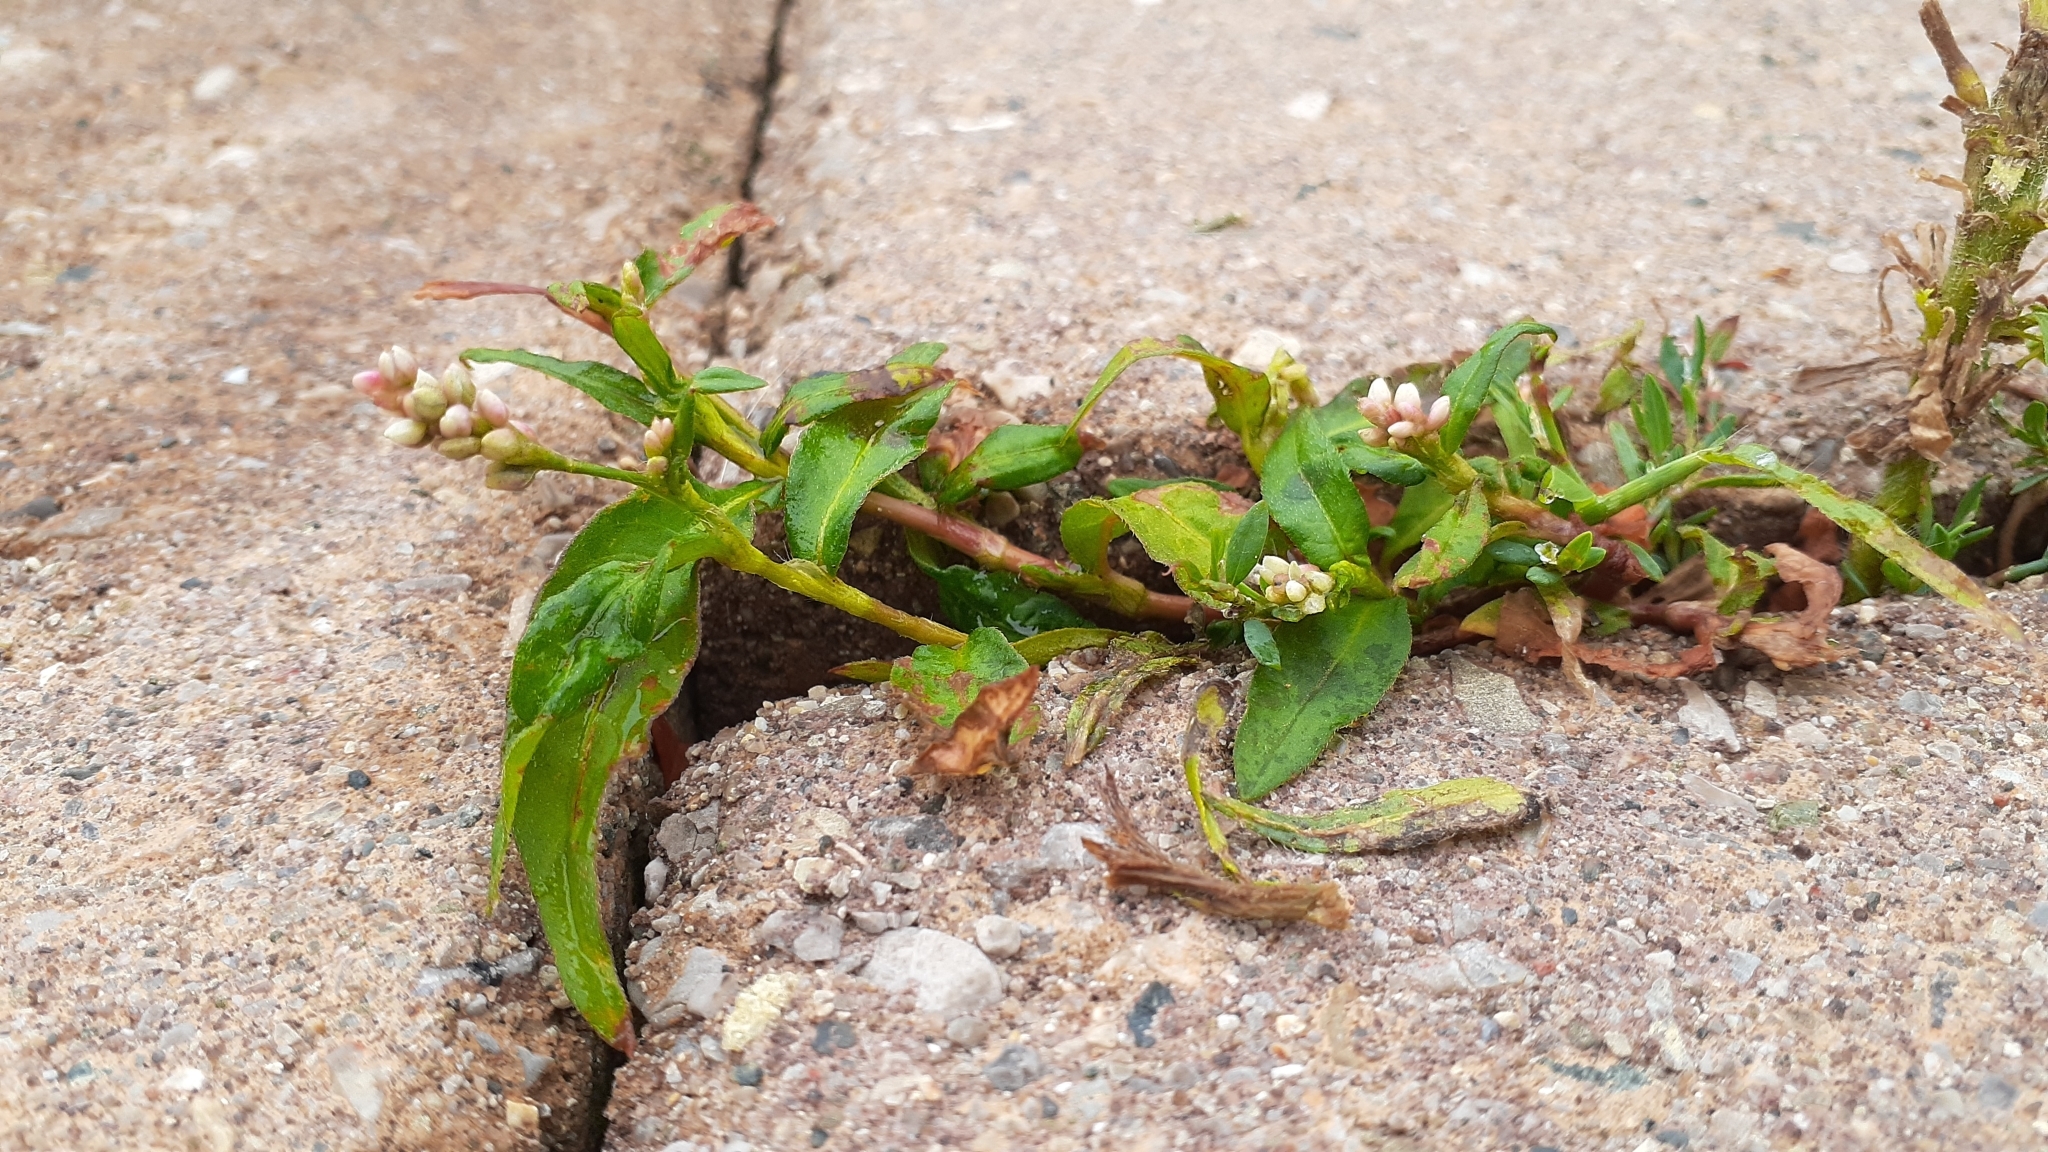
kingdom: Plantae
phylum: Tracheophyta
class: Magnoliopsida
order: Caryophyllales
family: Polygonaceae
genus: Persicaria
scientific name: Persicaria maculosa
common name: Redshank
